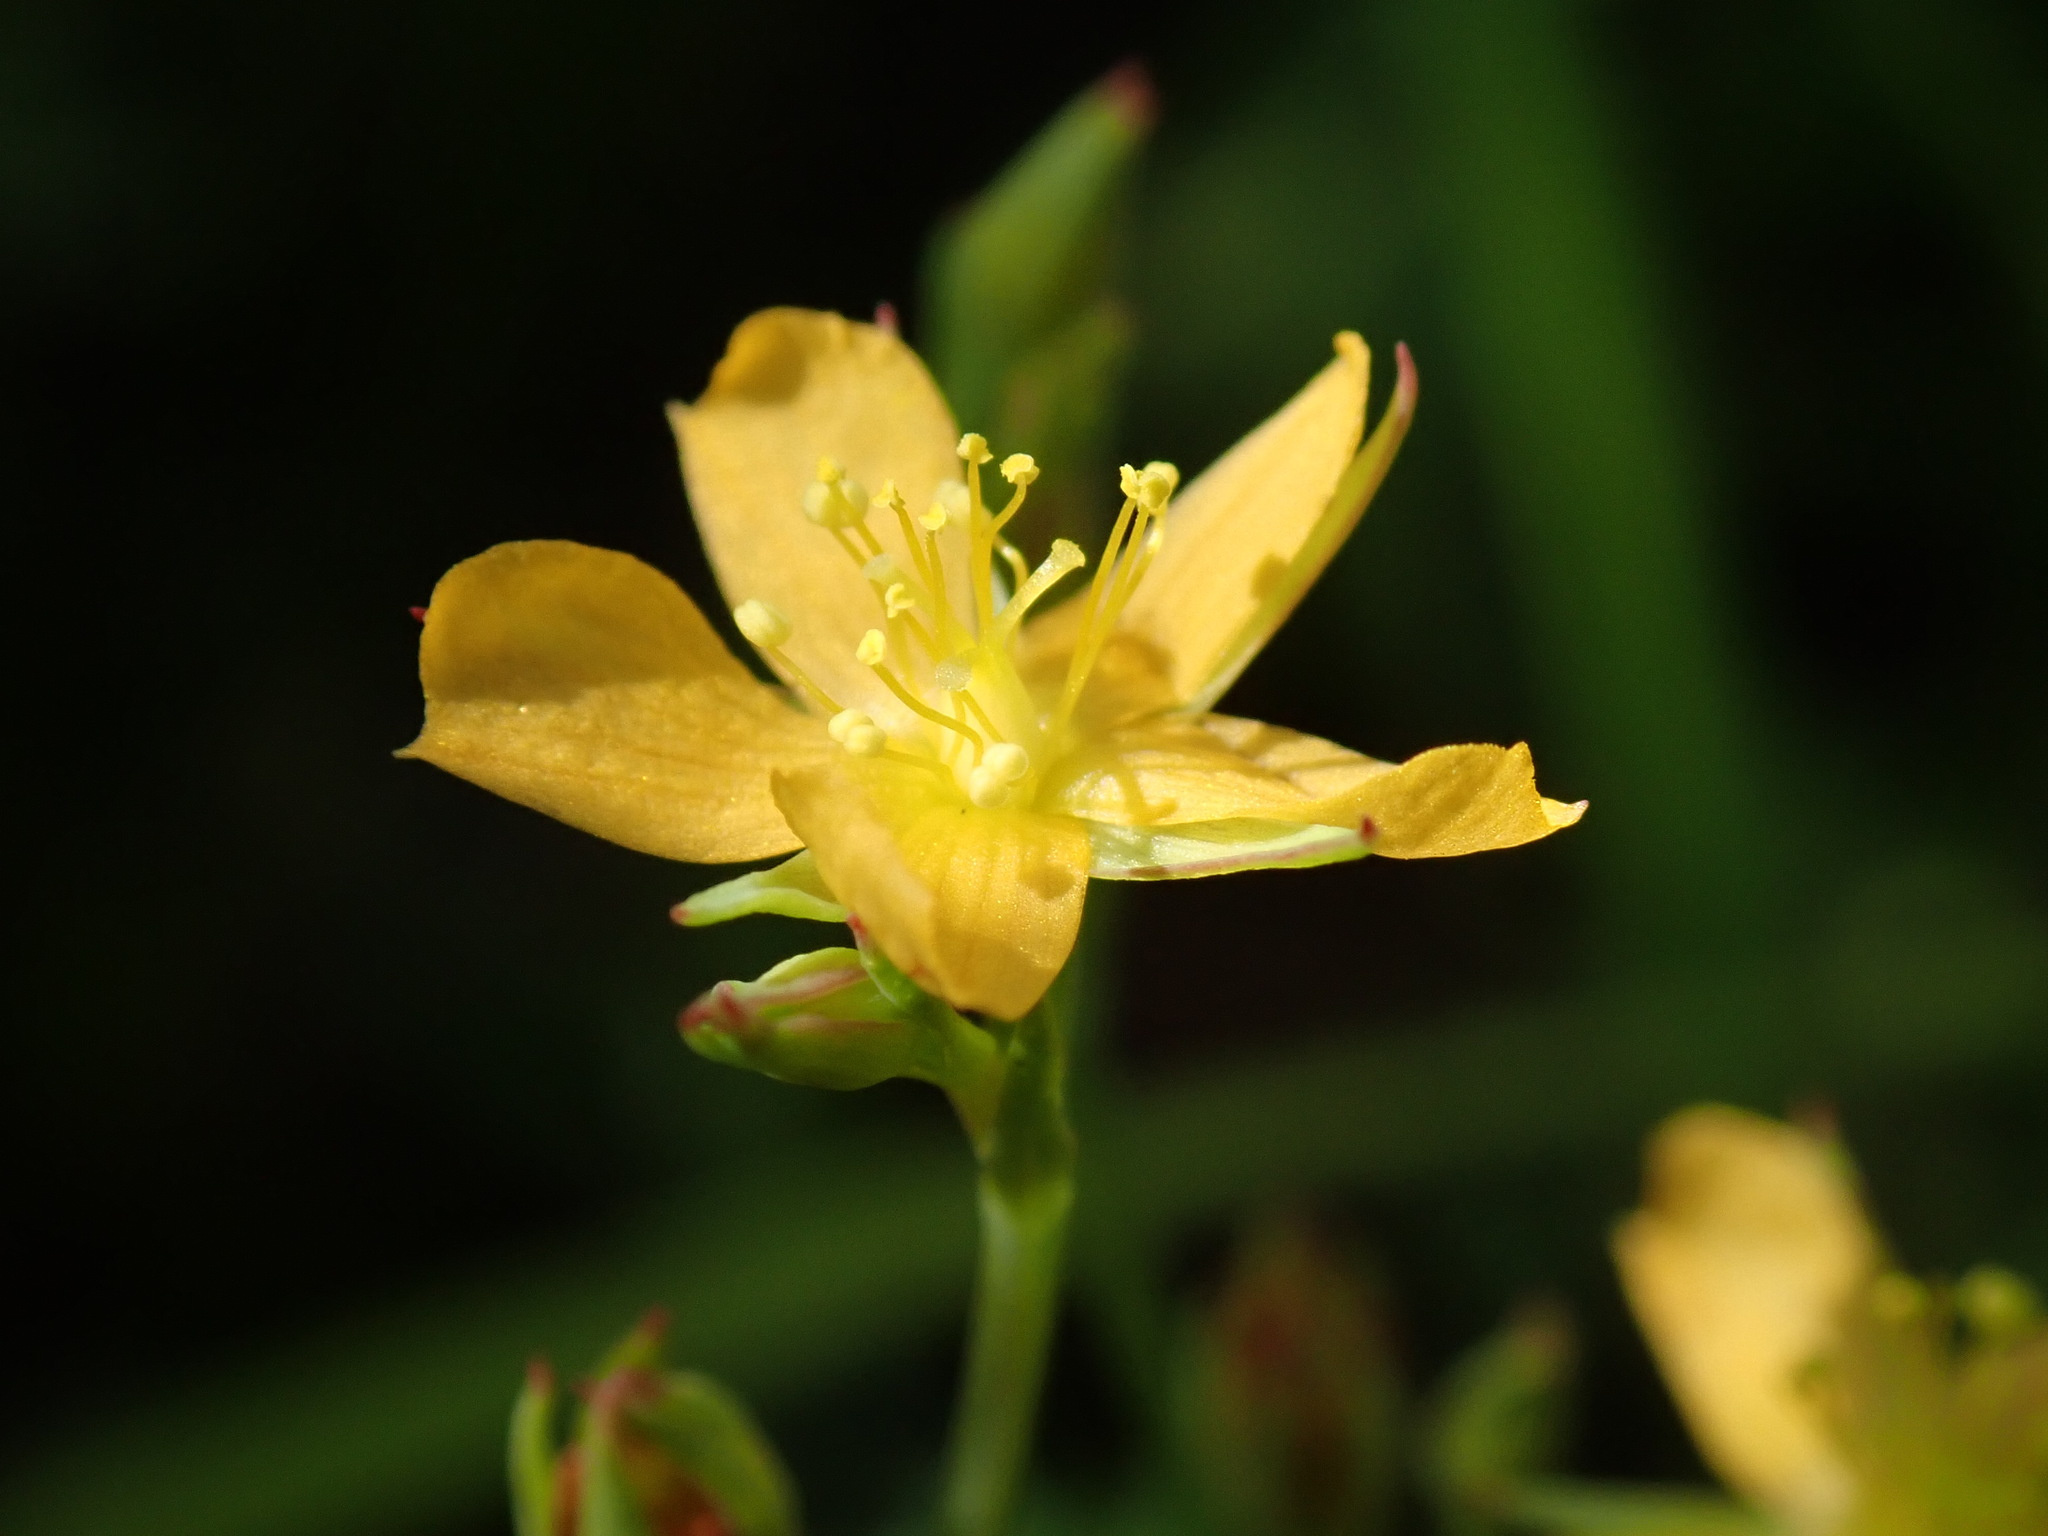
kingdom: Plantae
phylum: Tracheophyta
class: Magnoliopsida
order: Malpighiales
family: Hypericaceae
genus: Hypericum
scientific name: Hypericum lalandii
